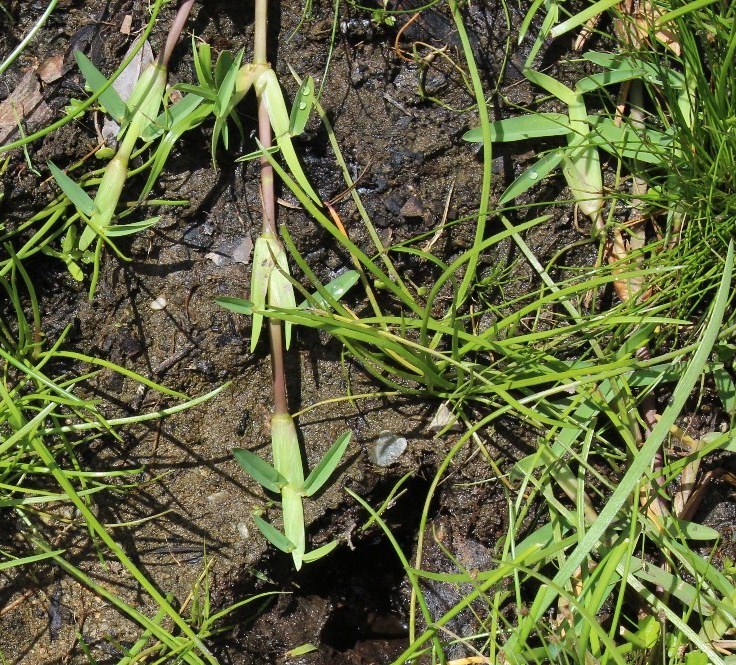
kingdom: Plantae
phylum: Tracheophyta
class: Liliopsida
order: Poales
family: Poaceae
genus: Stenotaphrum
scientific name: Stenotaphrum secundatum
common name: St. augustine grass
